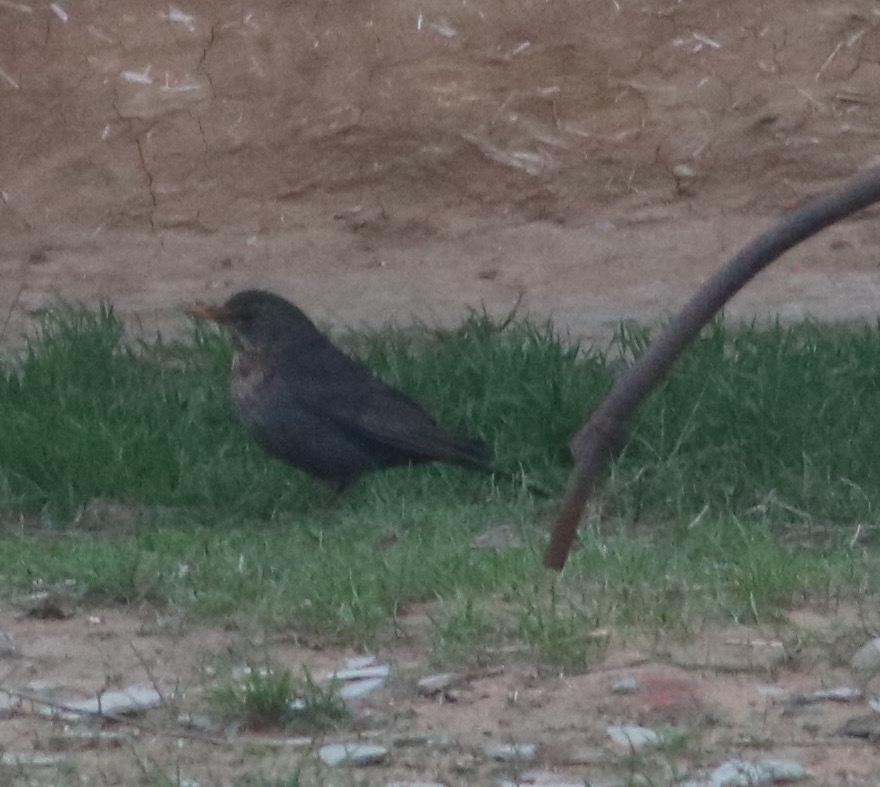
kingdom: Animalia
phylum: Chordata
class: Aves
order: Passeriformes
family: Turdidae
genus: Turdus
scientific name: Turdus merula
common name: Common blackbird
